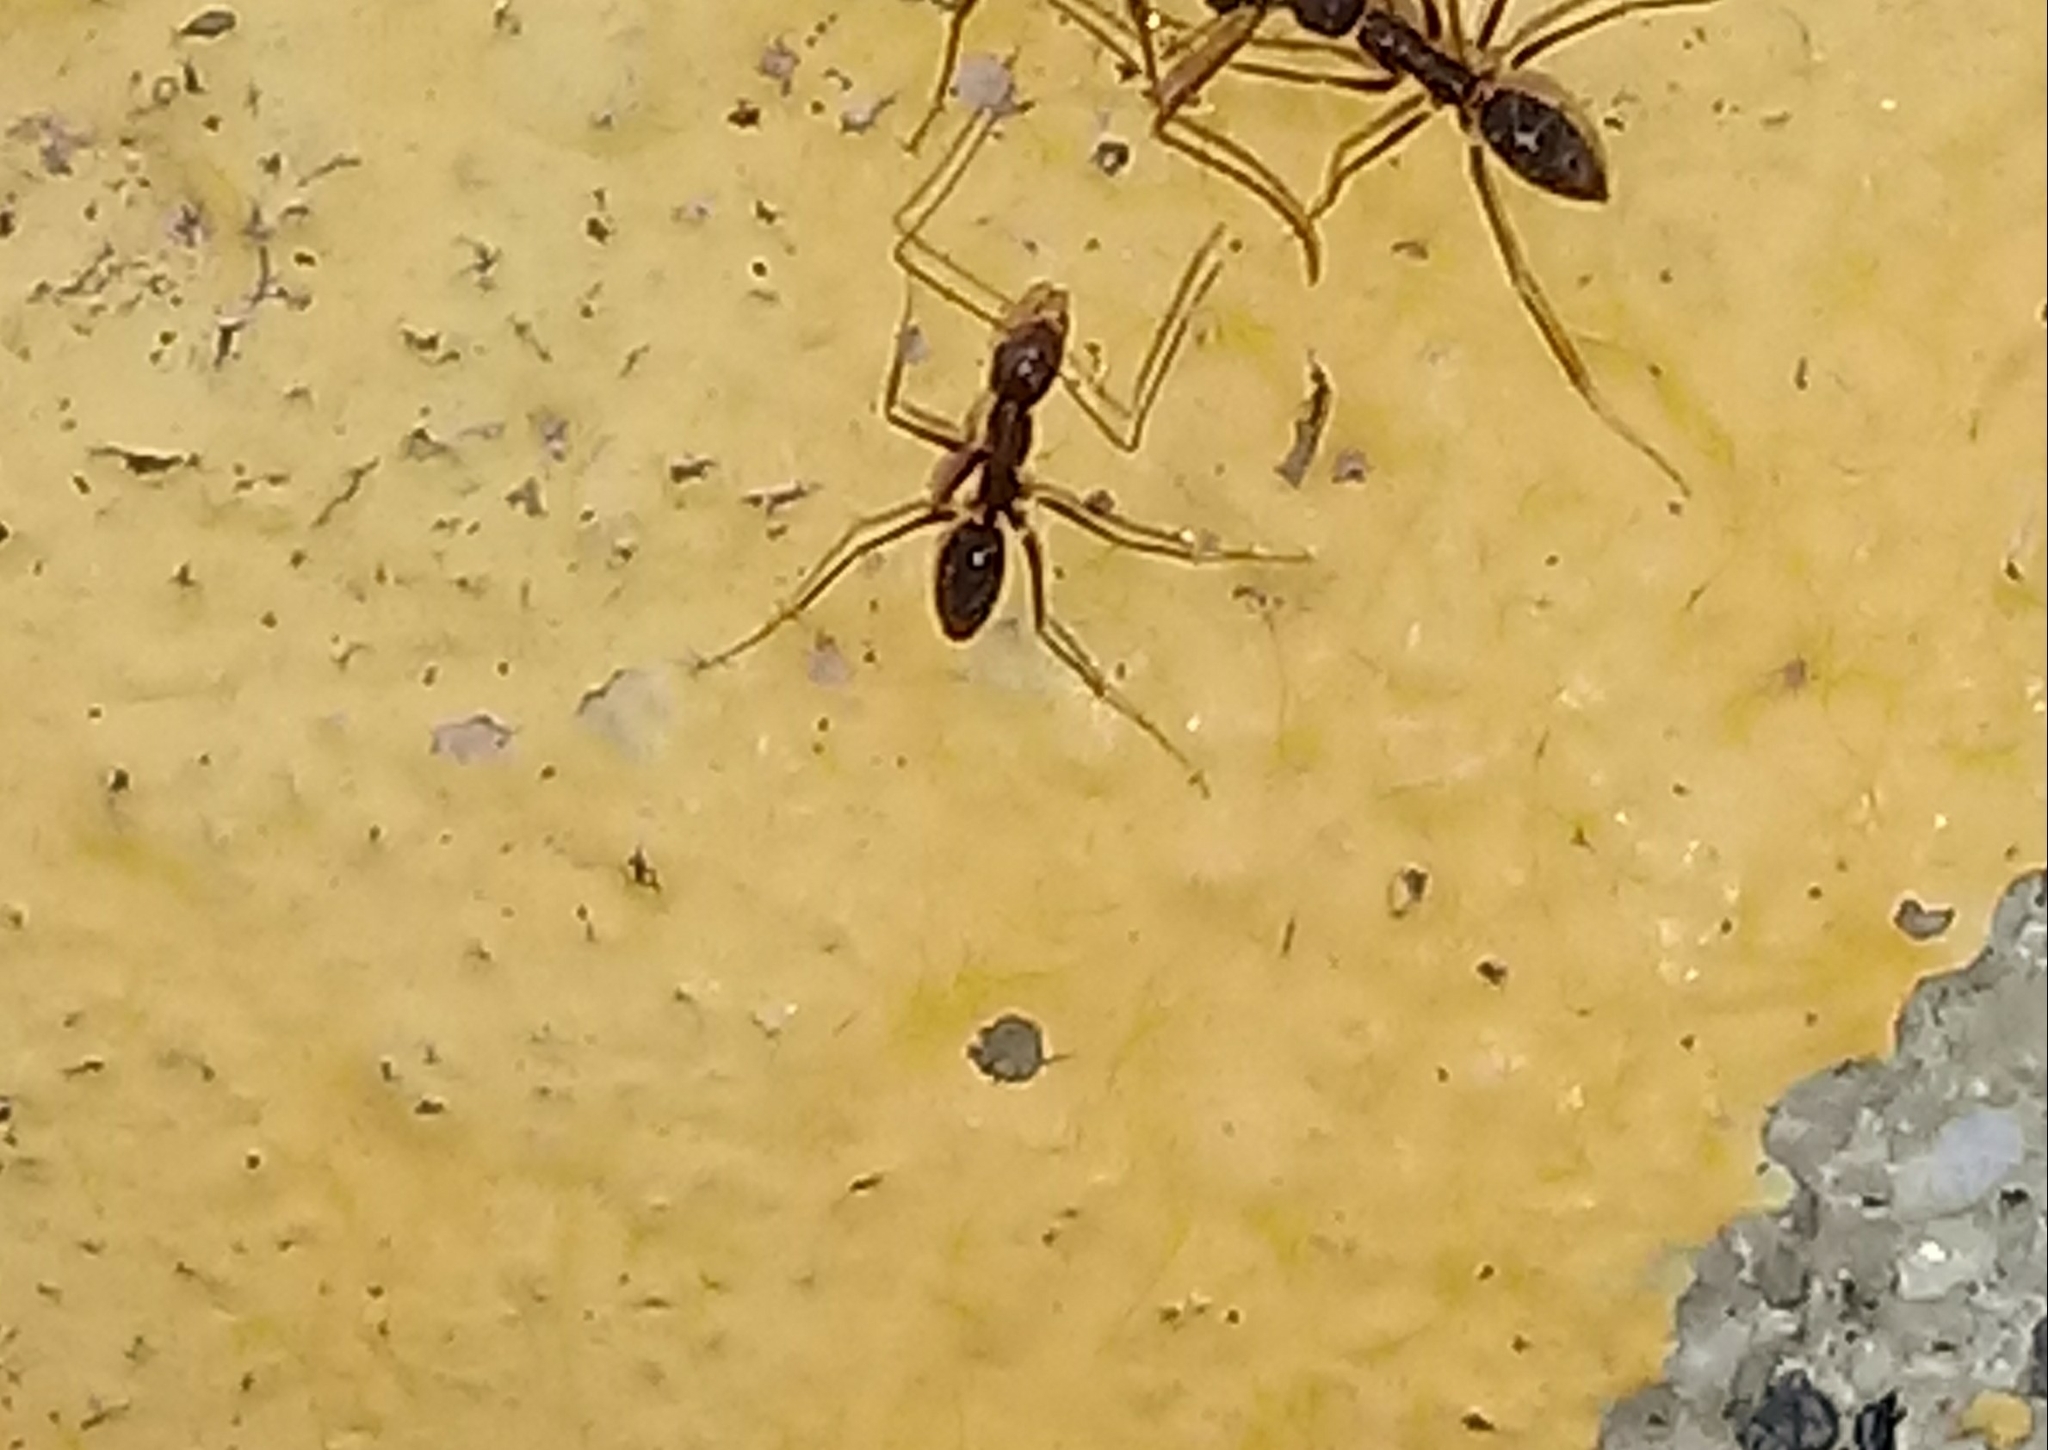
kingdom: Animalia
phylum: Arthropoda
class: Insecta
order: Hymenoptera
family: Formicidae
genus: Paratrechina
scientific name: Paratrechina longicornis
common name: Longhorned crazy ant
